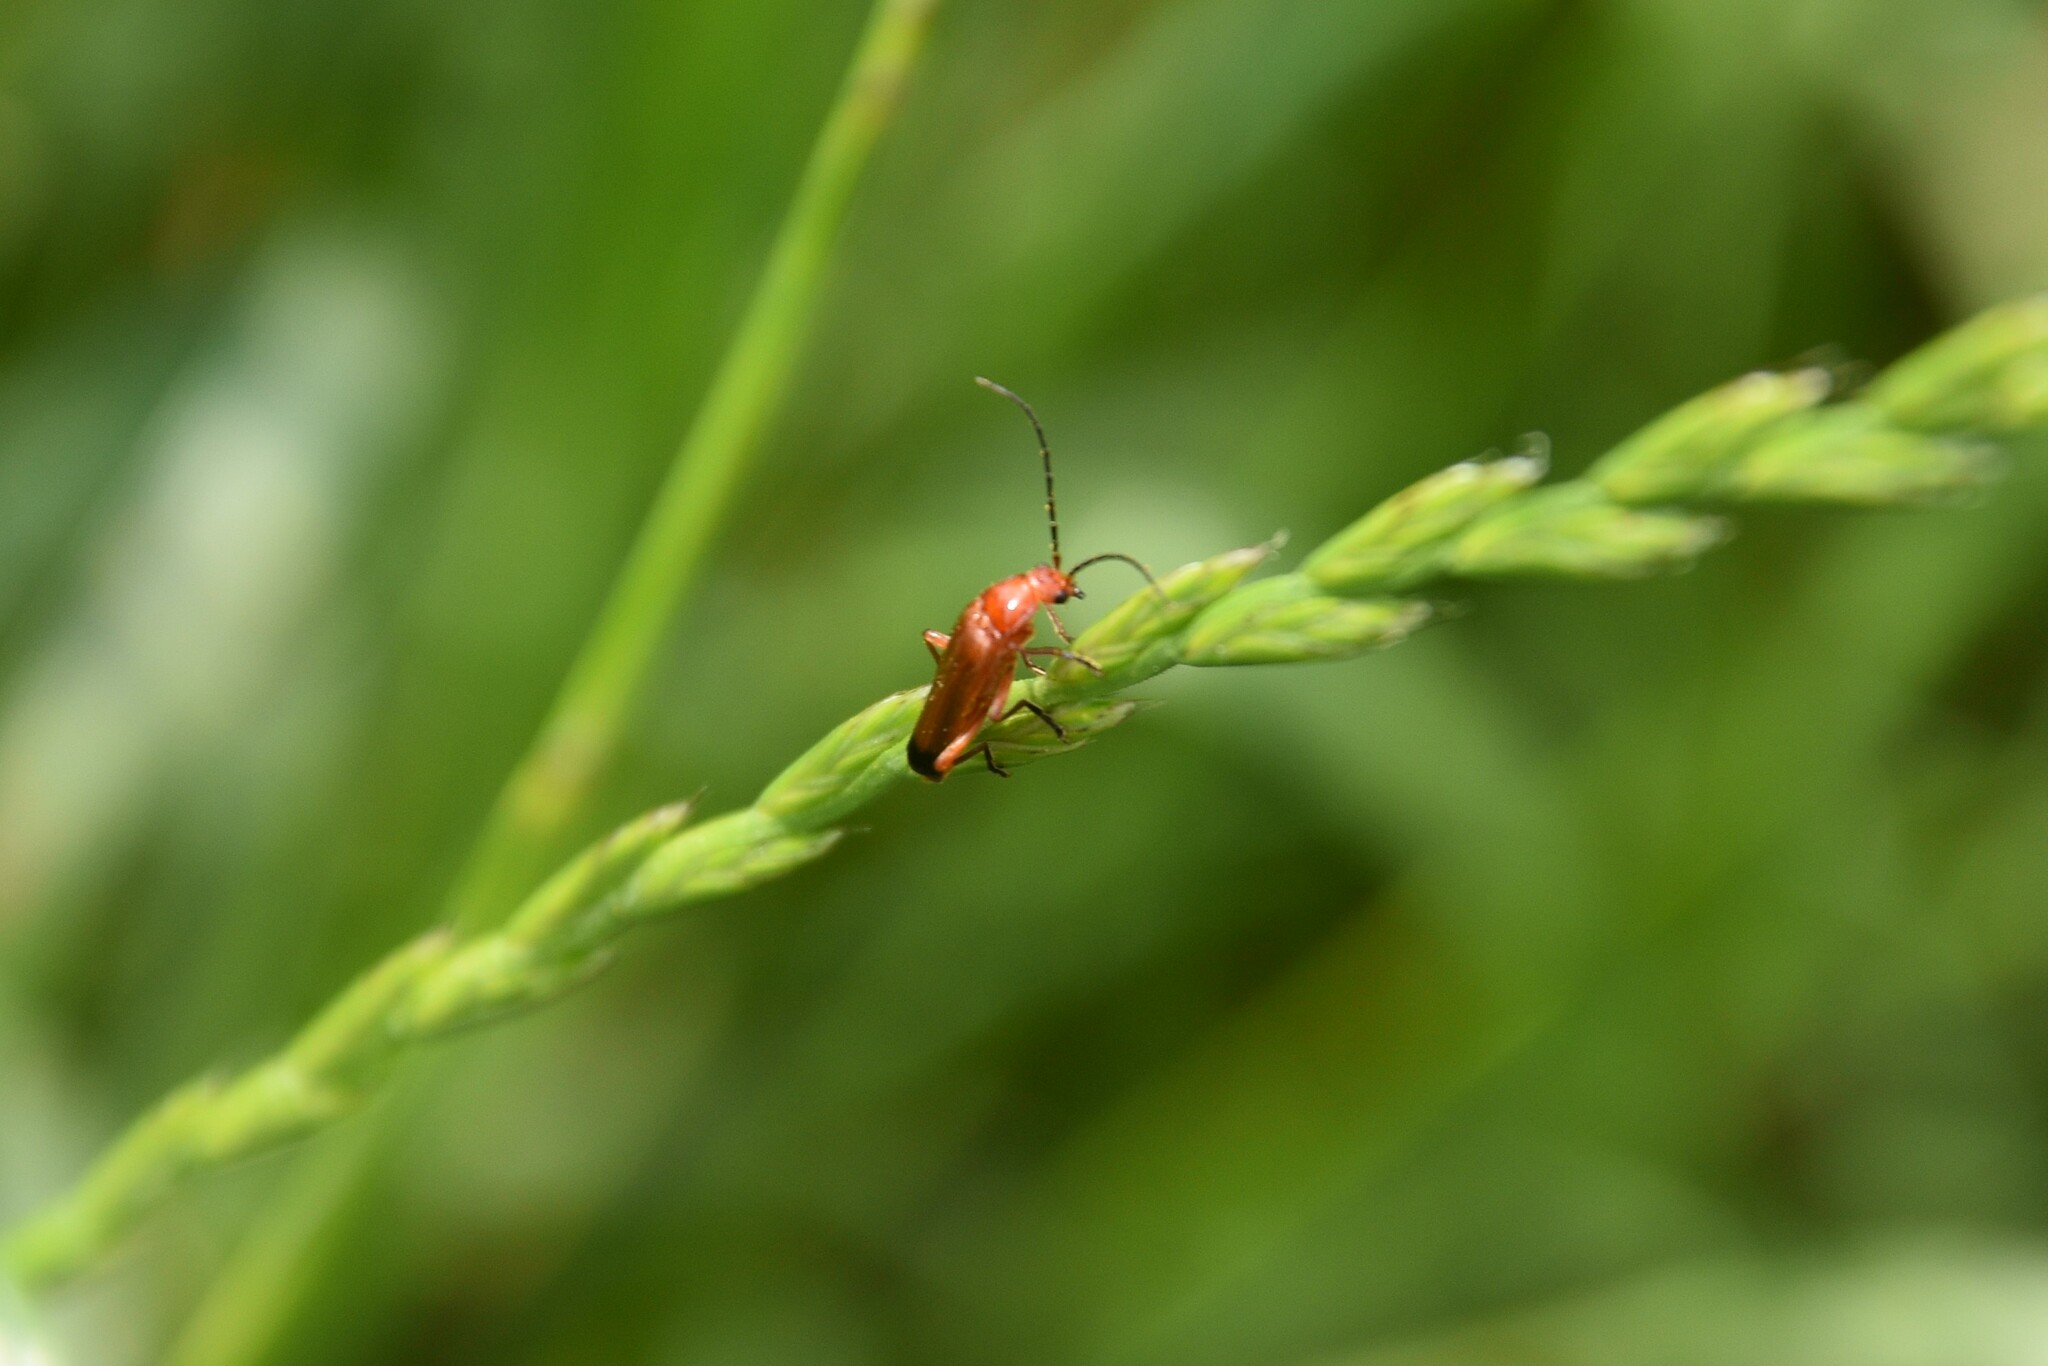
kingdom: Animalia
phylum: Arthropoda
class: Insecta
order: Coleoptera
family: Cantharidae
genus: Rhagonycha
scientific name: Rhagonycha fulva
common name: Common red soldier beetle
